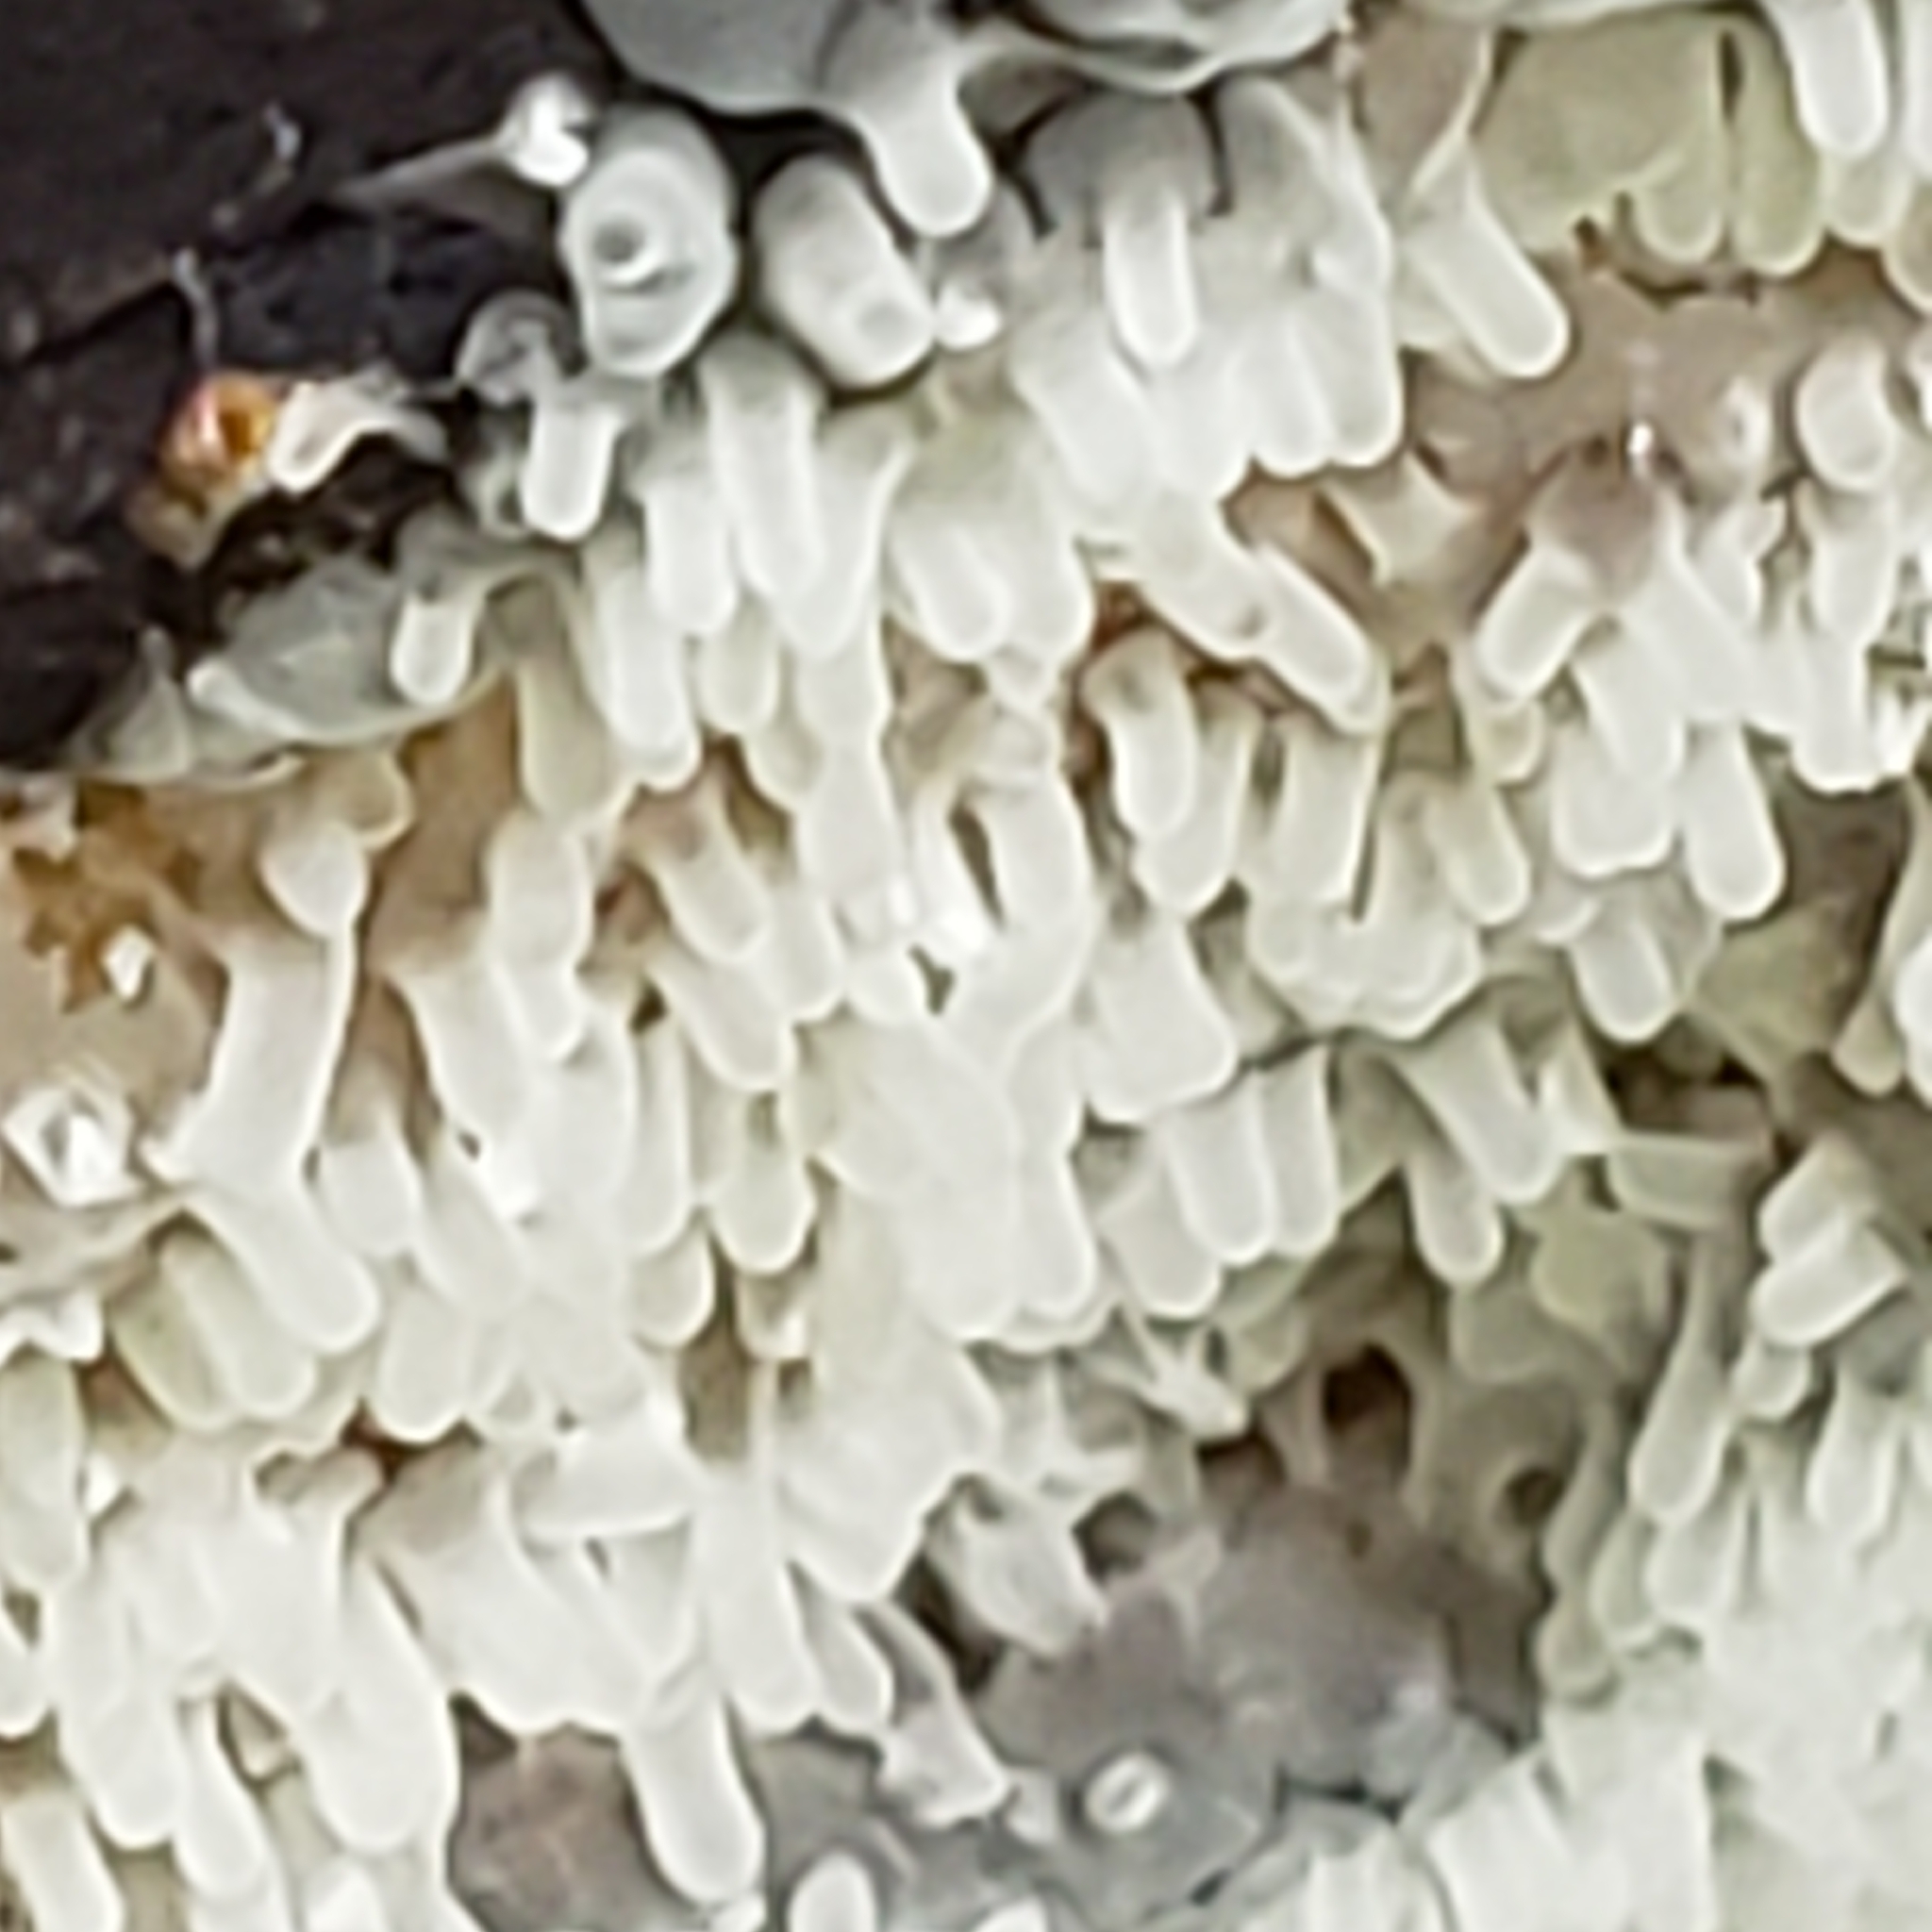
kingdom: Protozoa
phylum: Mycetozoa
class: Protosteliomycetes
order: Ceratiomyxales
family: Ceratiomyxaceae
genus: Ceratiomyxa
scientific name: Ceratiomyxa fruticulosa
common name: Honeycomb coral slime mold
